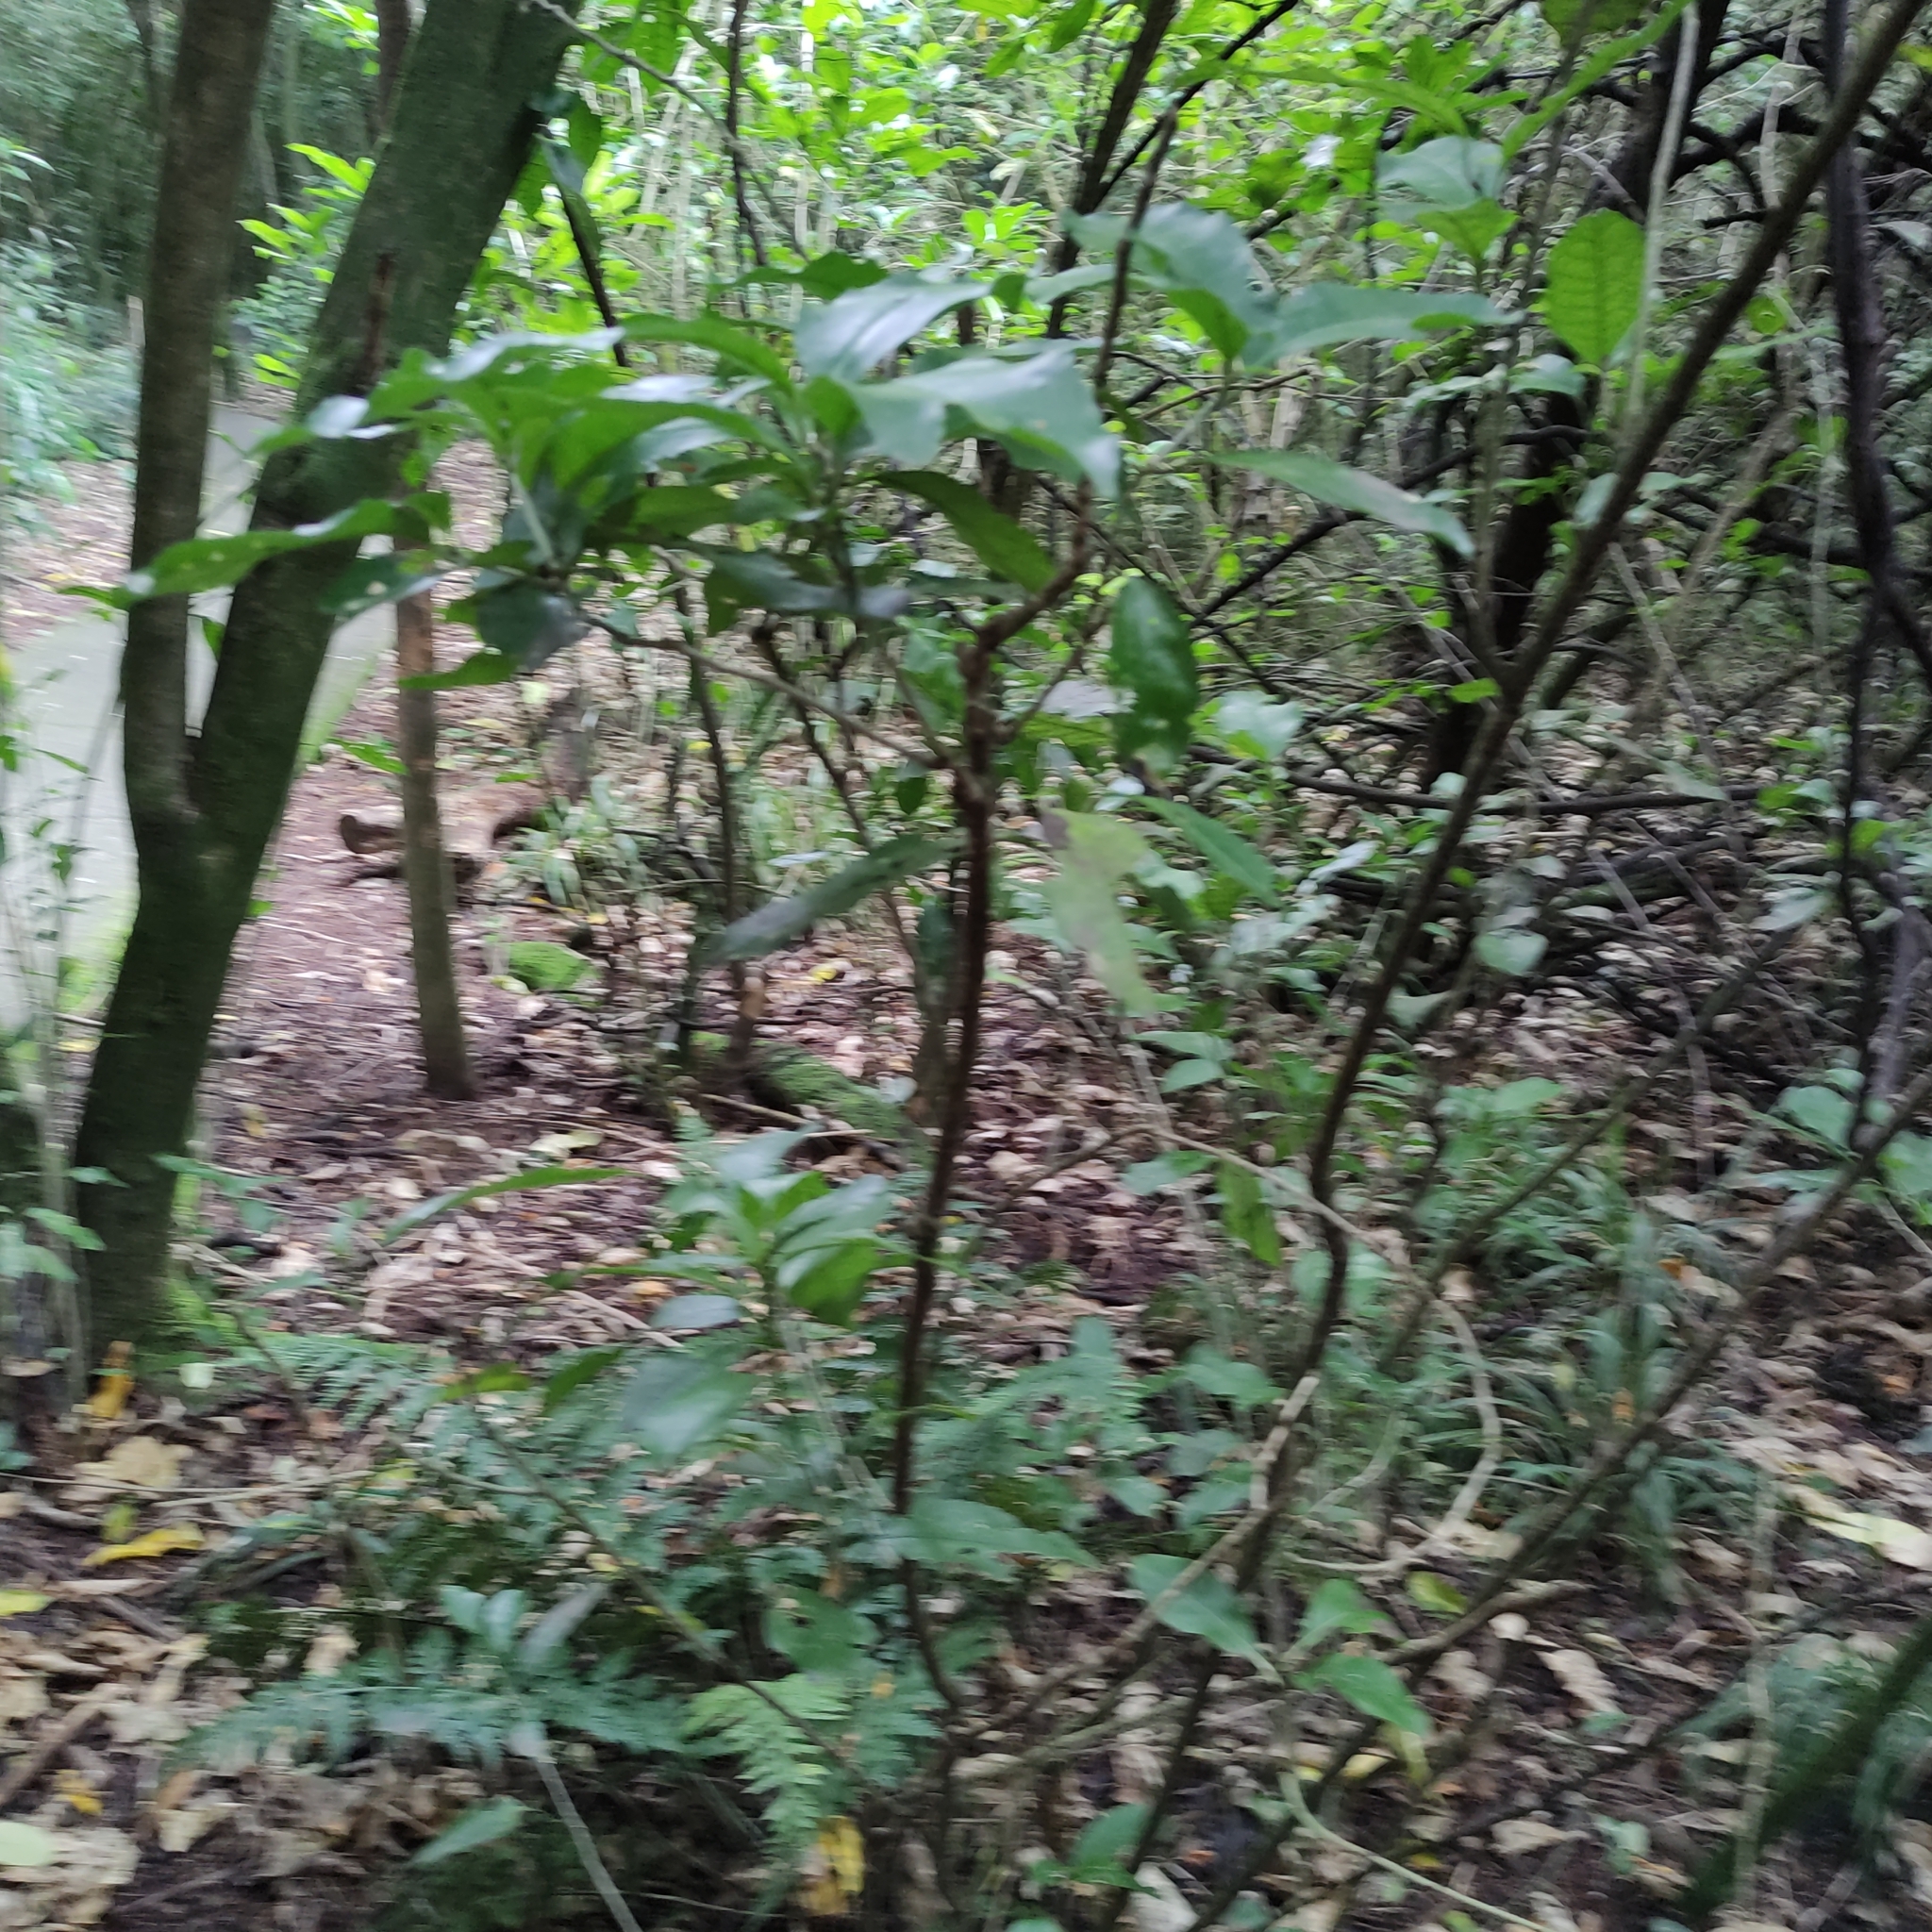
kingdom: Plantae
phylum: Tracheophyta
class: Magnoliopsida
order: Malpighiales
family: Violaceae
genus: Melicytus
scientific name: Melicytus ramiflorus
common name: Mahoe
